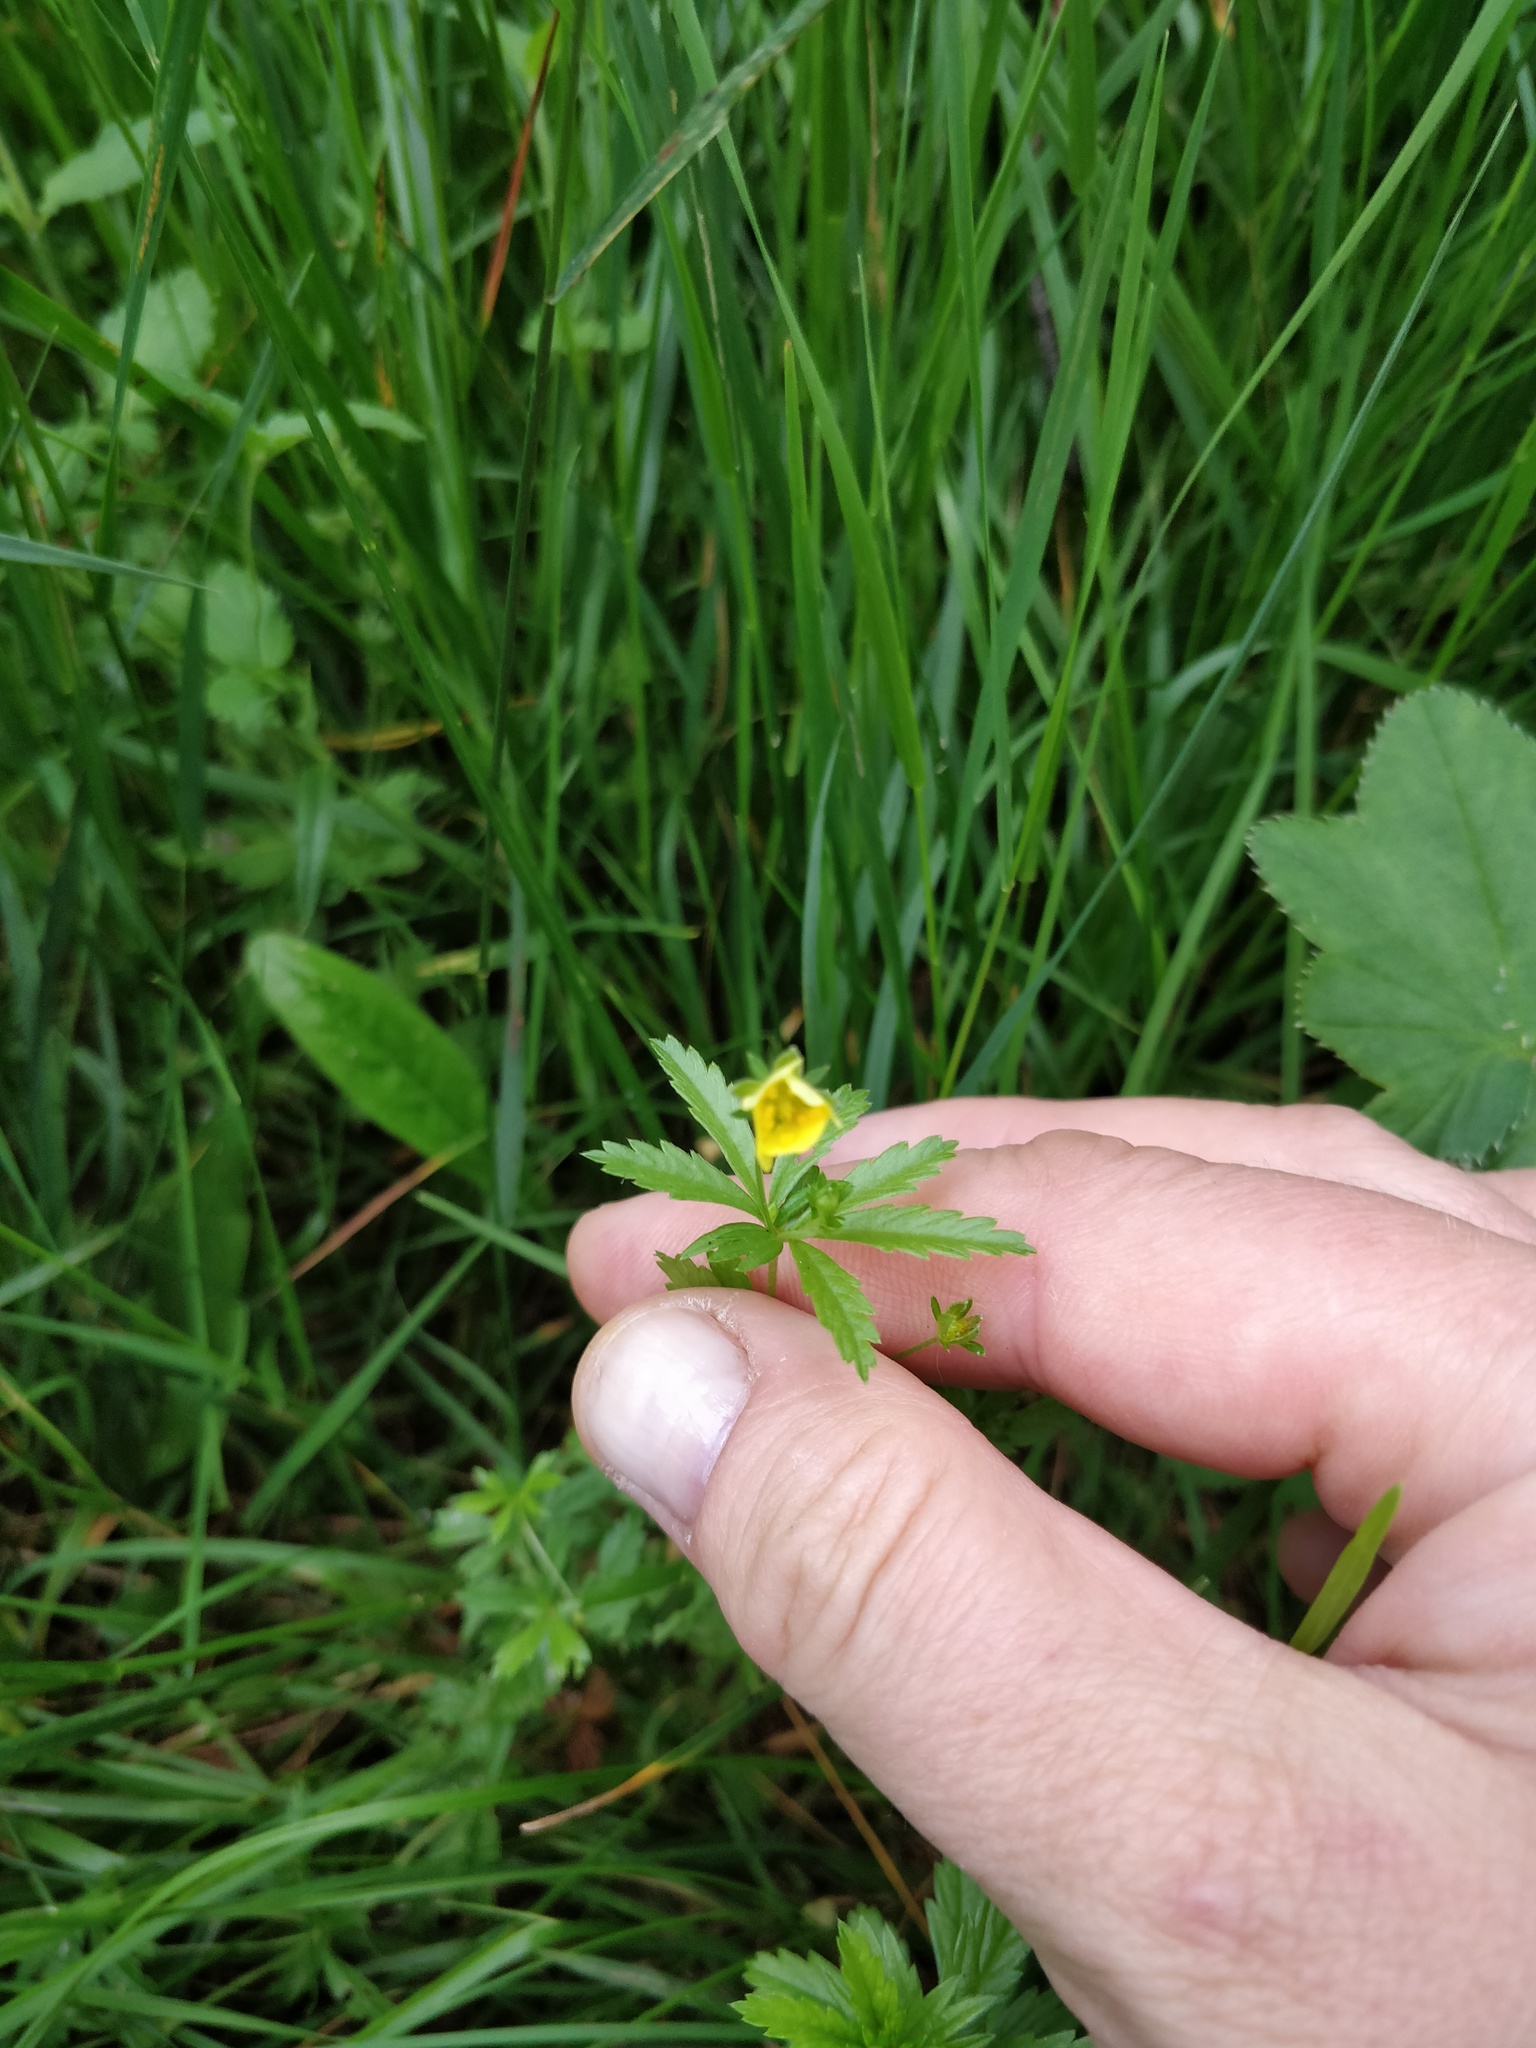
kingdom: Plantae
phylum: Tracheophyta
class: Magnoliopsida
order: Rosales
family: Rosaceae
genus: Potentilla
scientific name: Potentilla erecta
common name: Tormentil
